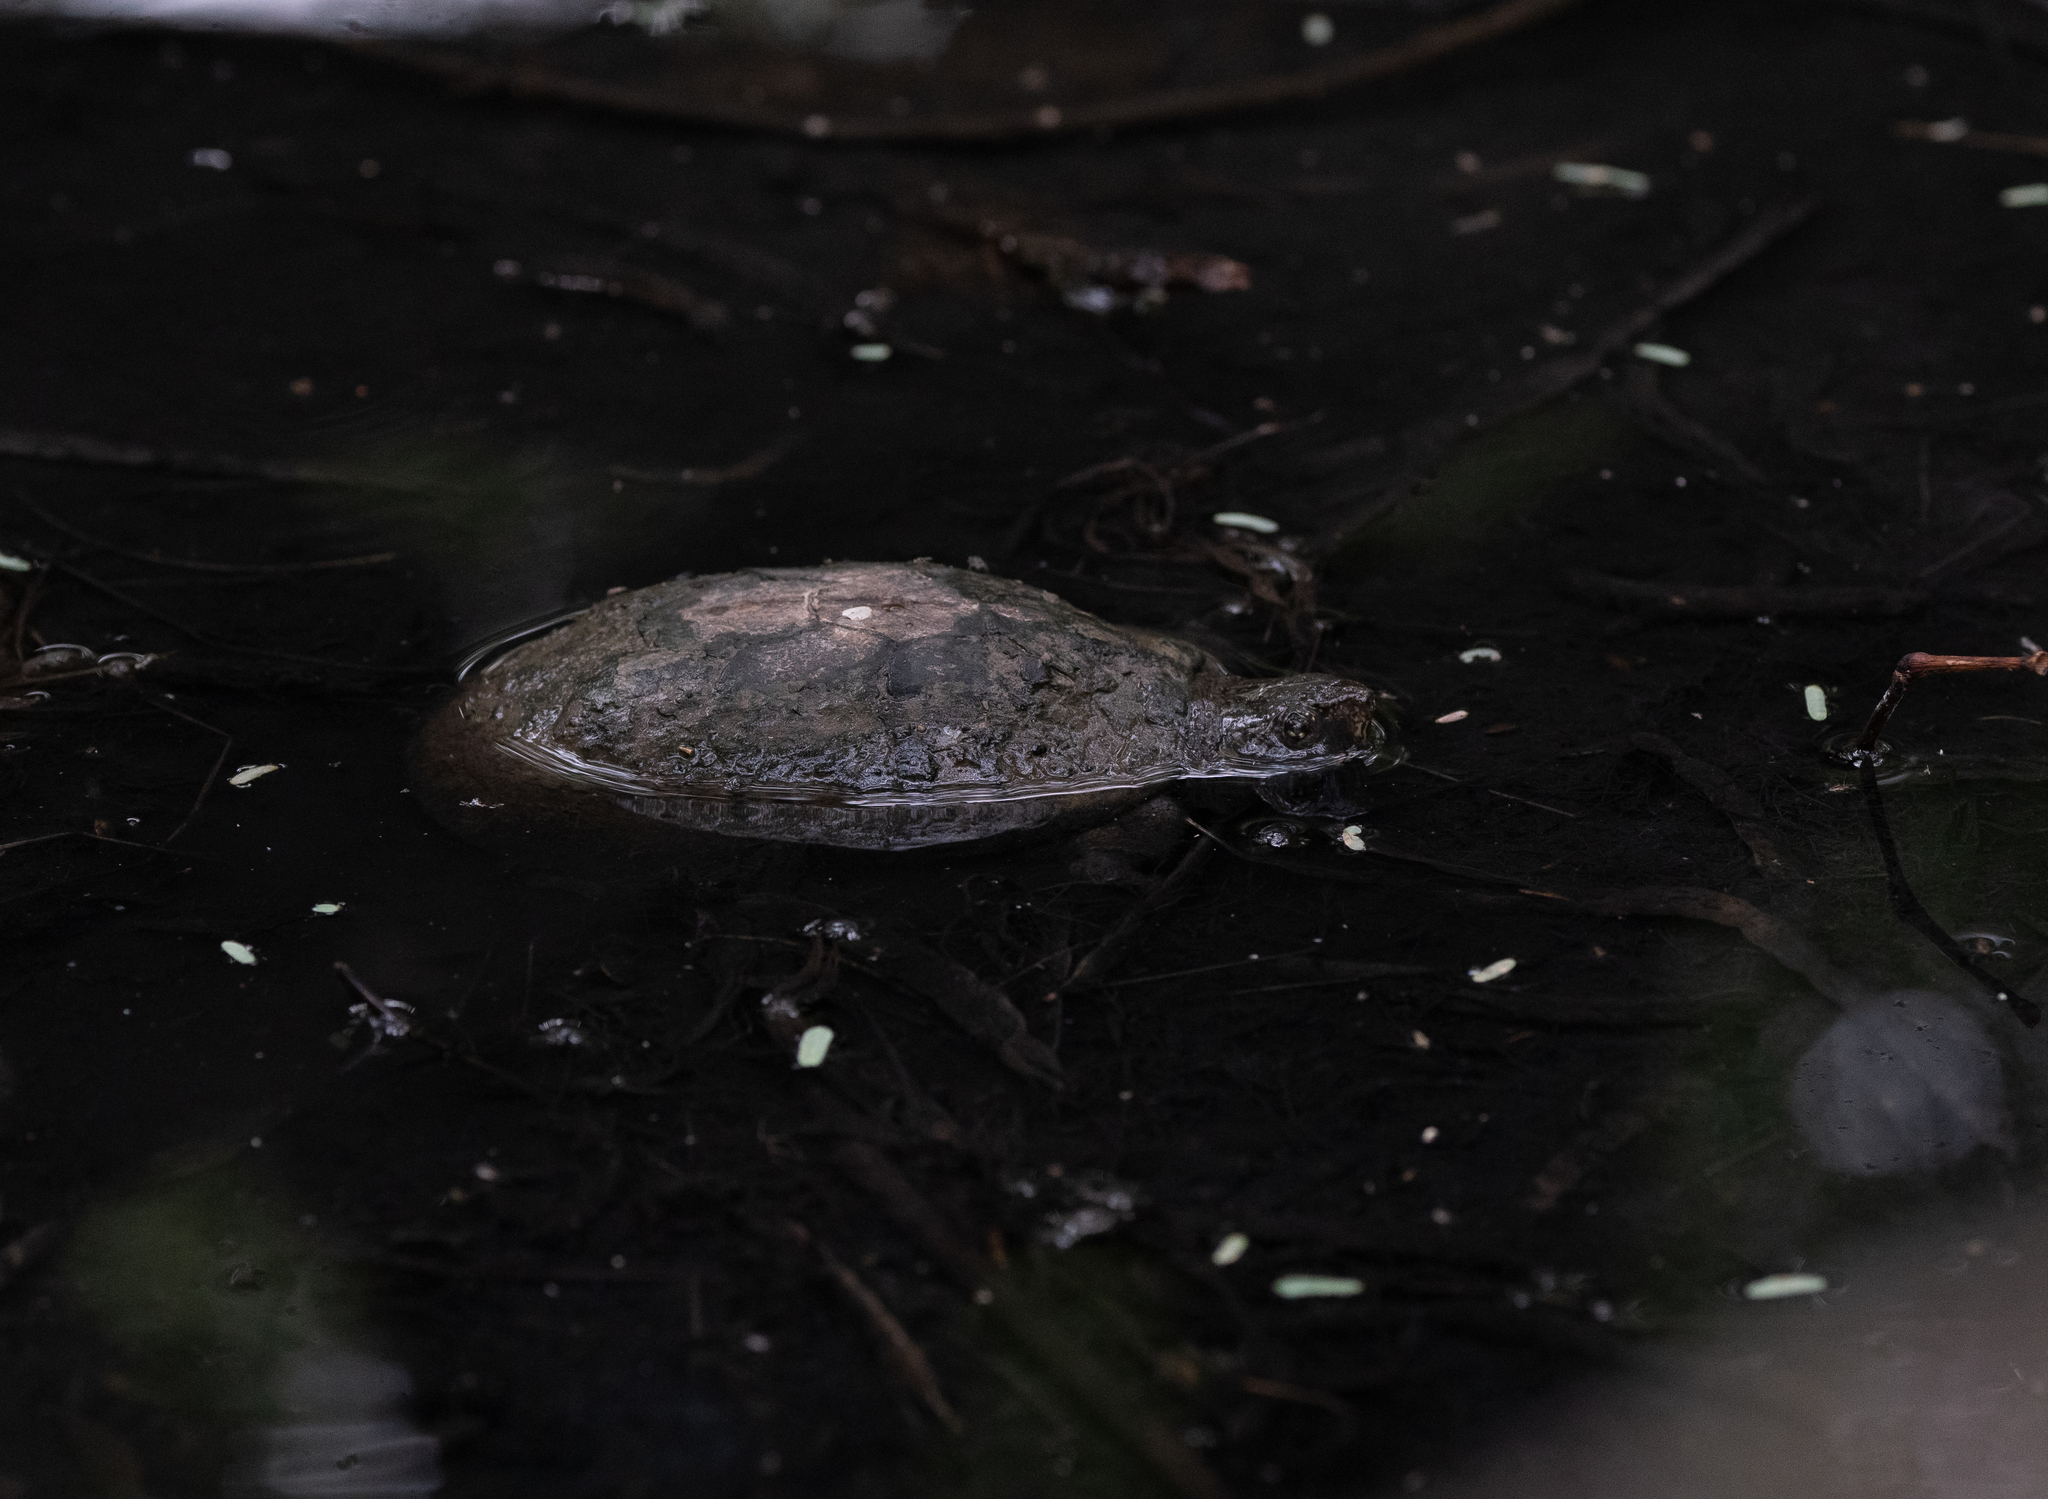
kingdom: Animalia
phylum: Chordata
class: Testudines
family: Kinosternidae
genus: Kinosternon
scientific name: Kinosternon sonoriense
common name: Sonora mud turtle
